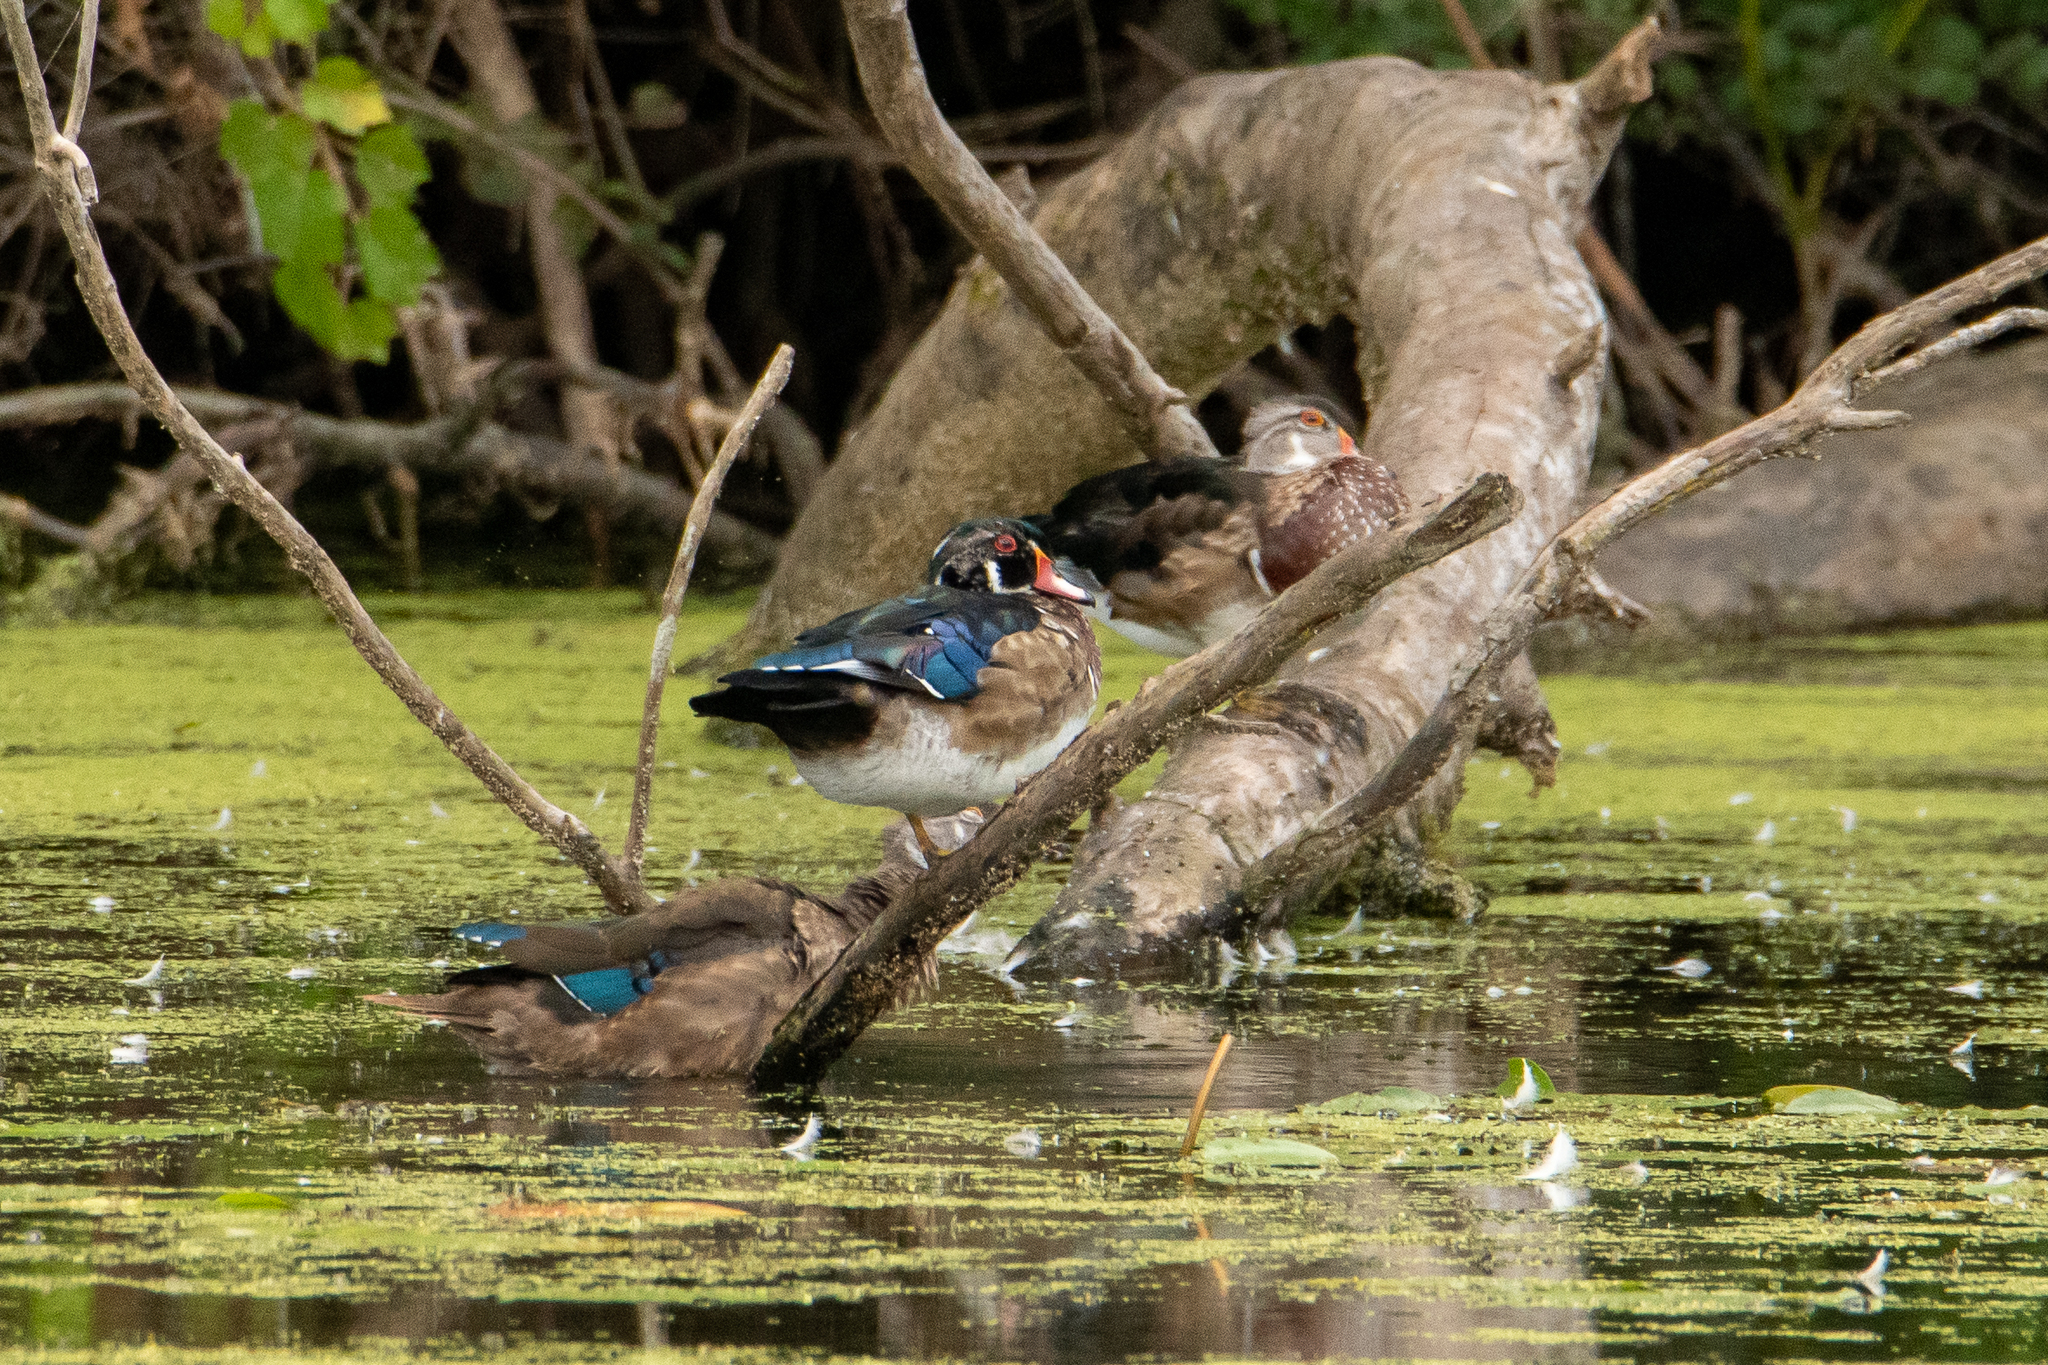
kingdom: Animalia
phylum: Chordata
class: Aves
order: Anseriformes
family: Anatidae
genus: Aix
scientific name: Aix sponsa
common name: Wood duck
